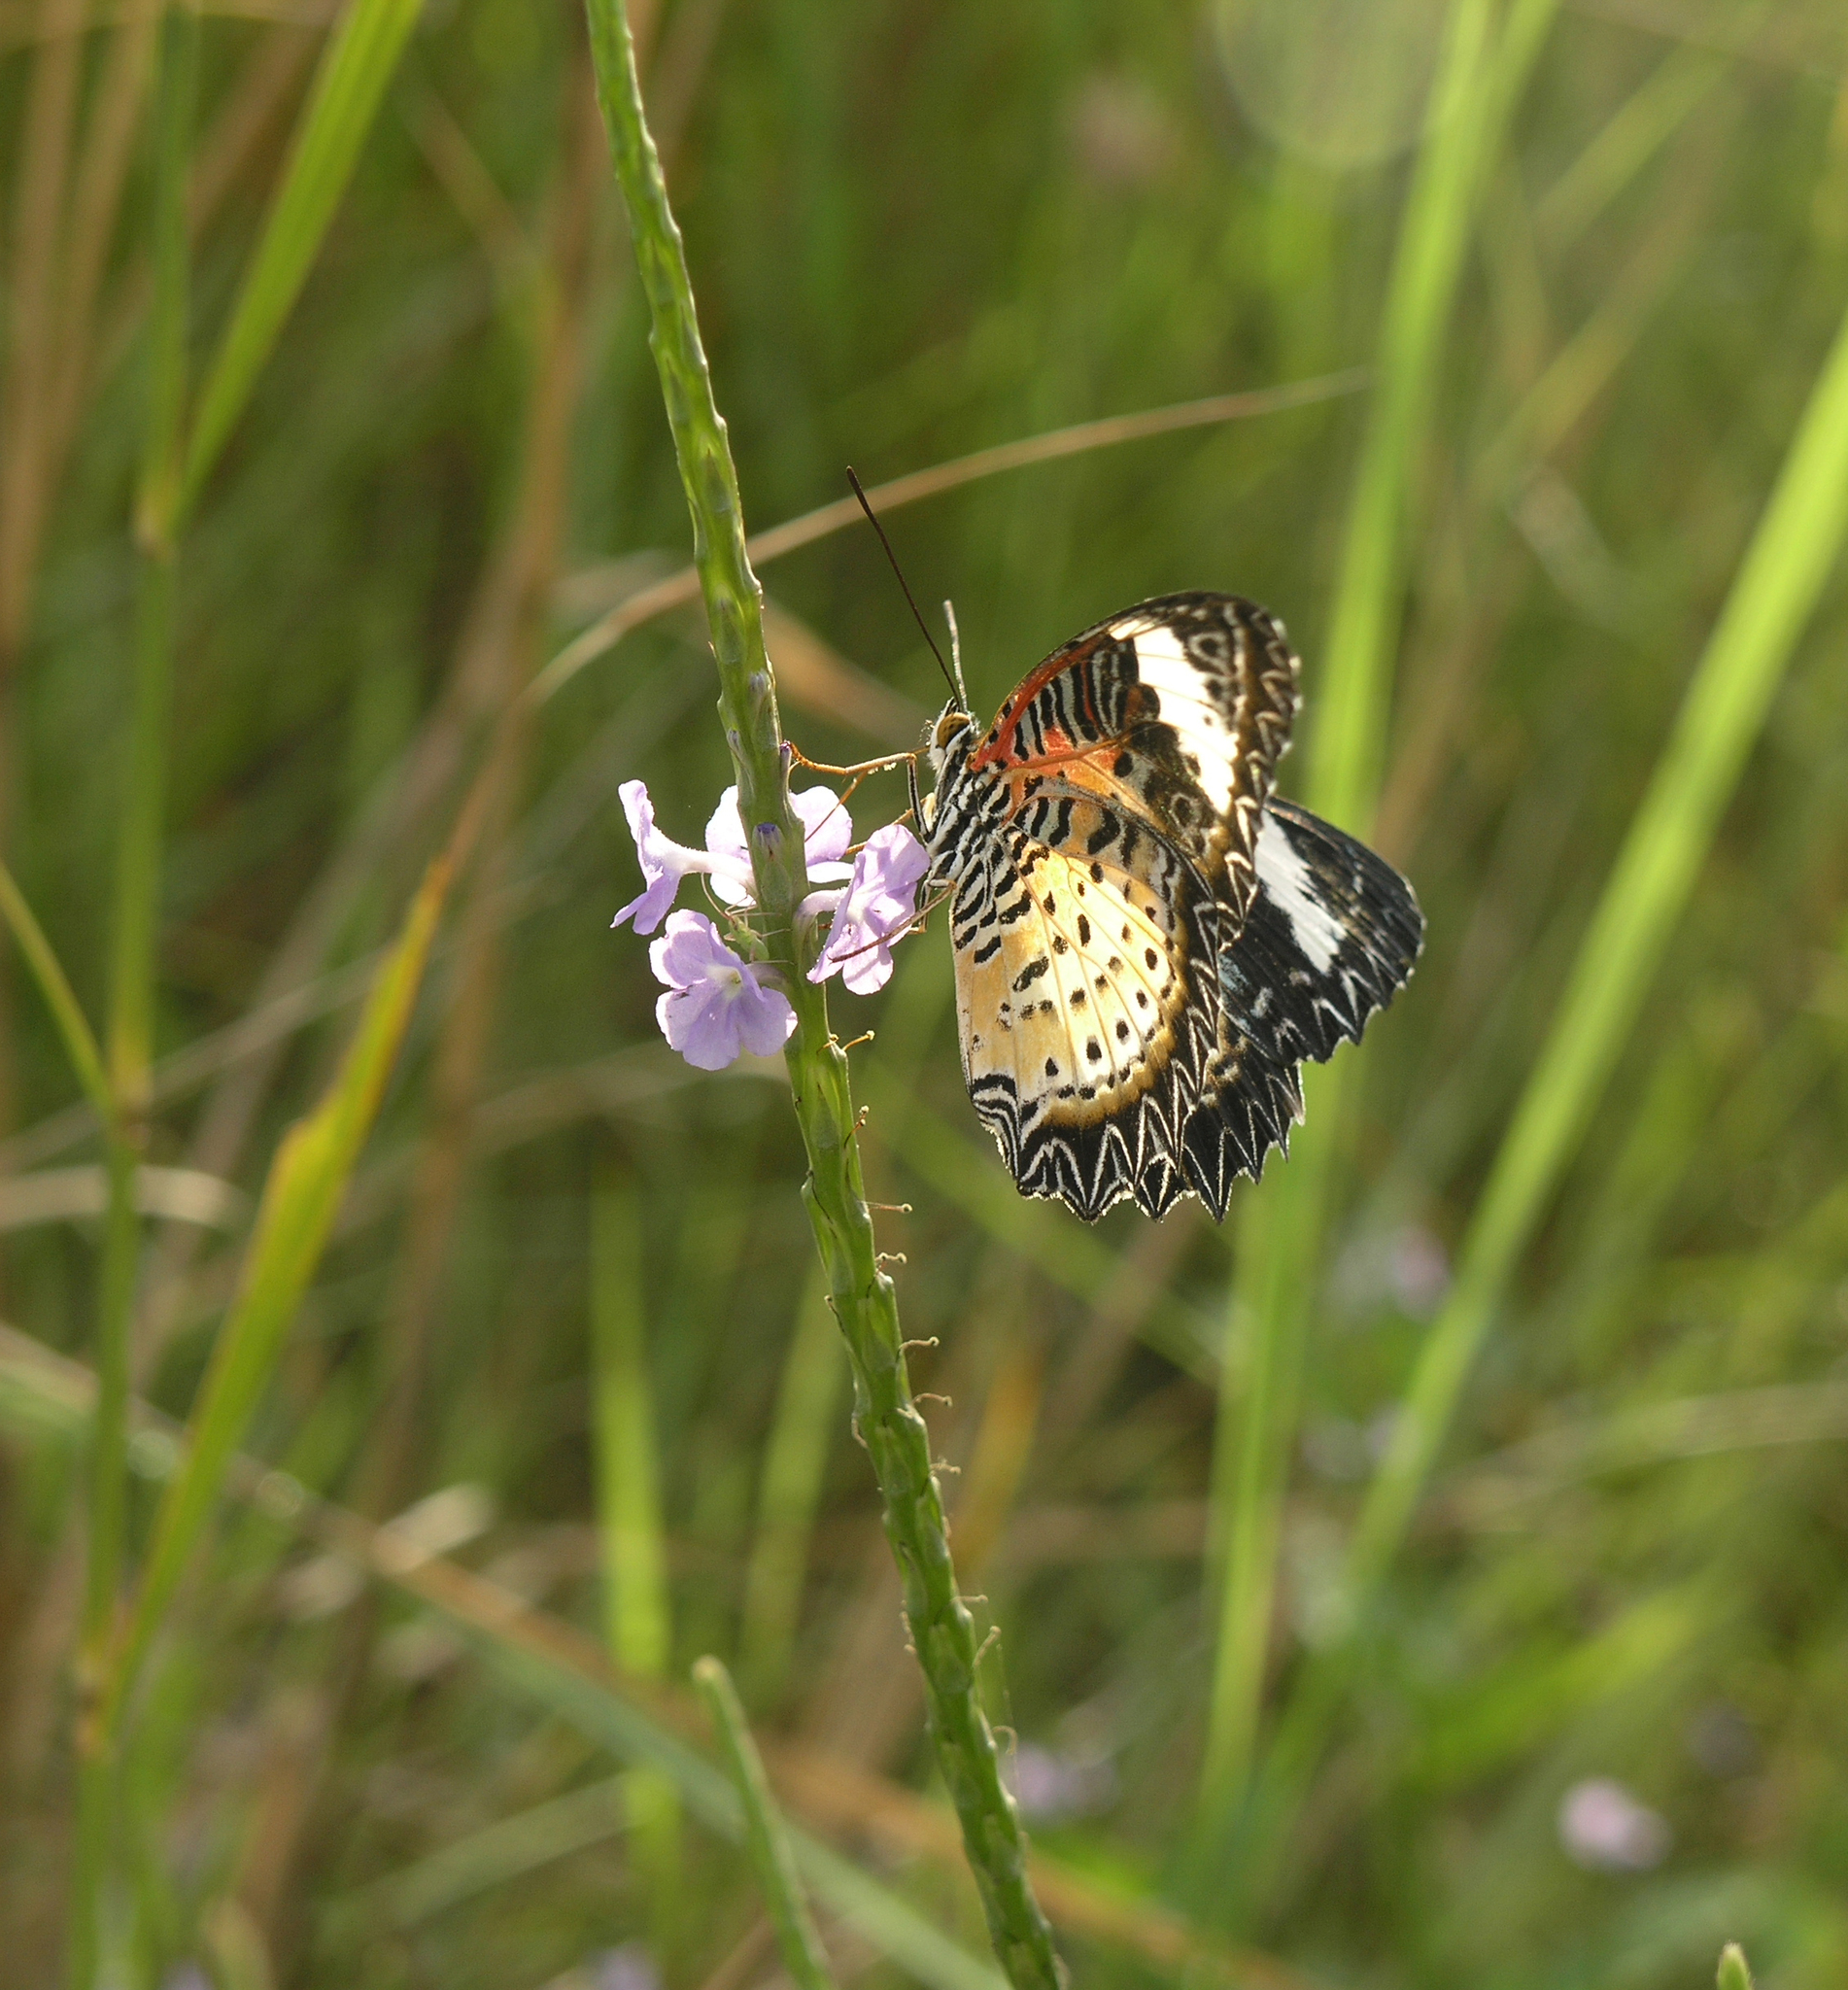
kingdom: Animalia
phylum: Arthropoda
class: Insecta
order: Lepidoptera
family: Nymphalidae
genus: Cethosia
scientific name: Cethosia cyane
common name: Leopard lacewing butterfly
